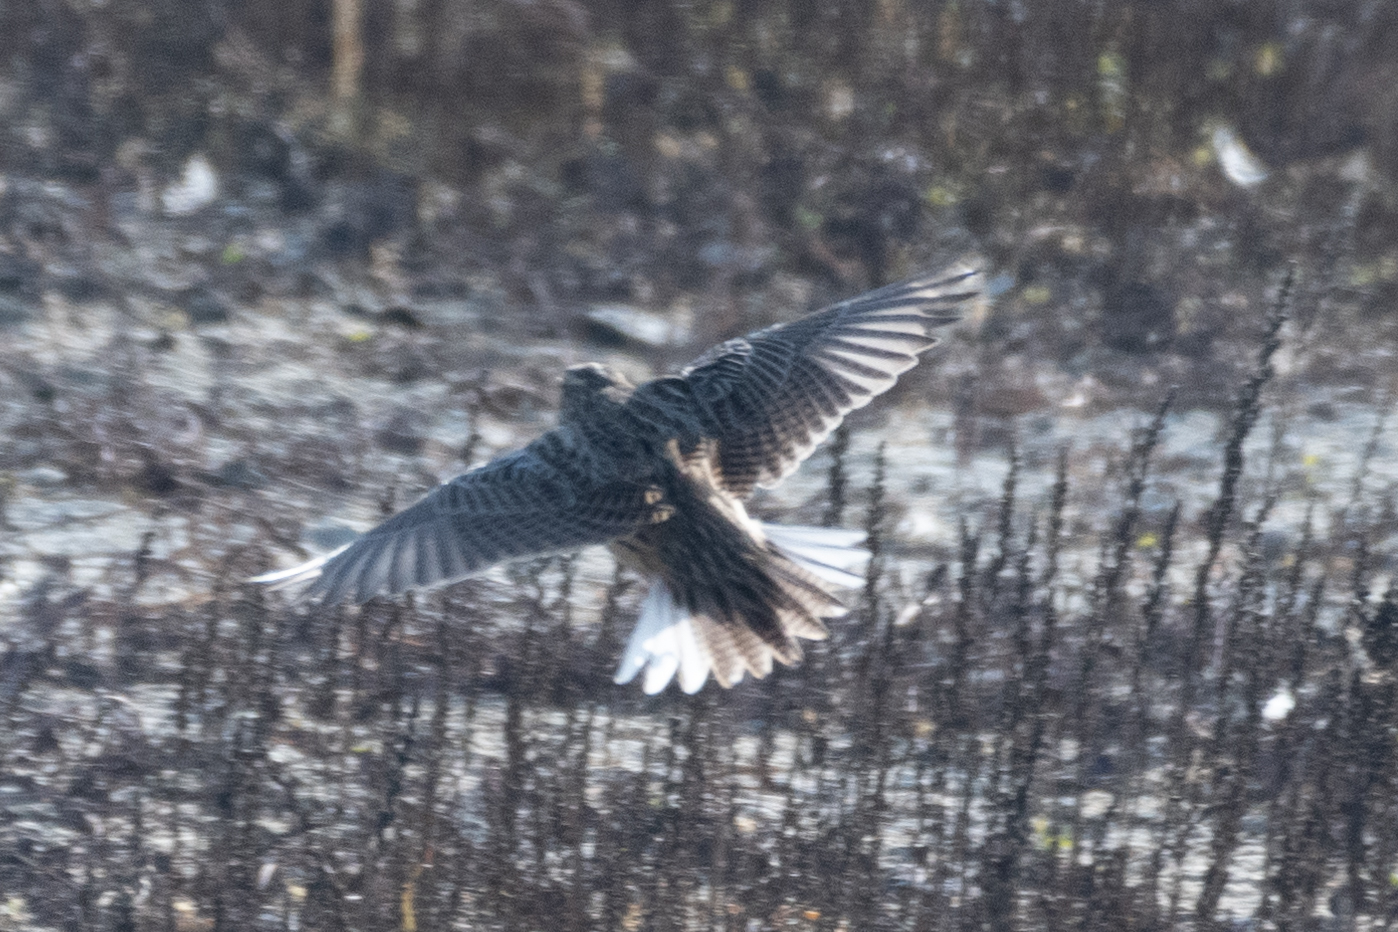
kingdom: Animalia
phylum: Chordata
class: Aves
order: Passeriformes
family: Icteridae
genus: Sturnella
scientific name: Sturnella neglecta
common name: Western meadowlark
